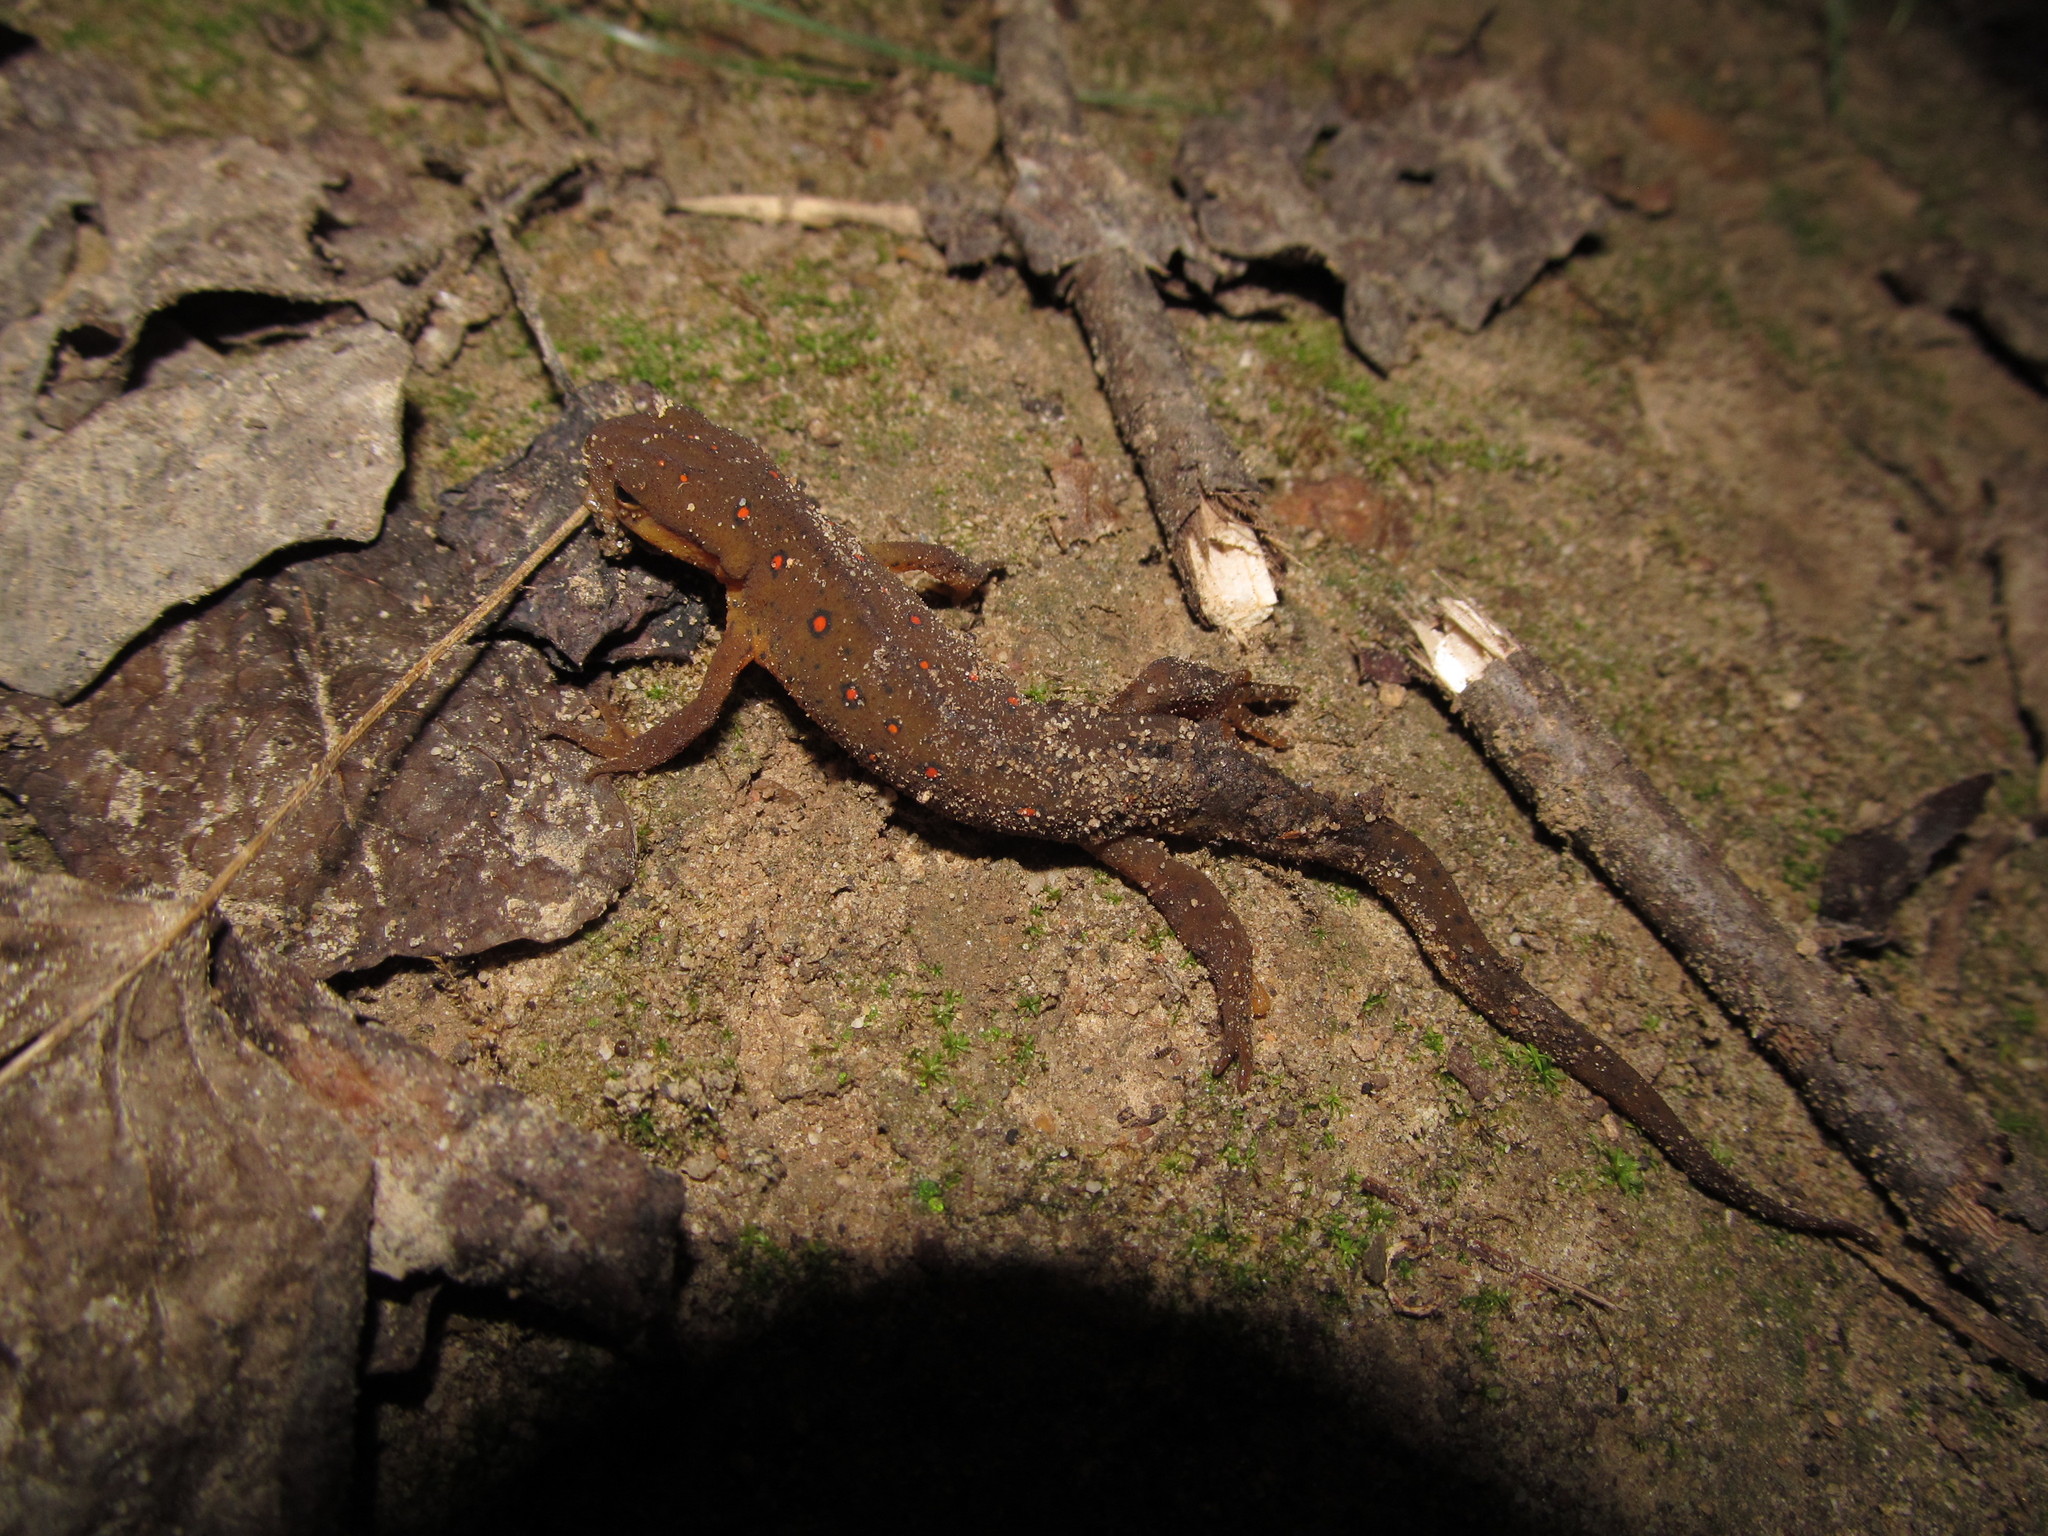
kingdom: Animalia
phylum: Chordata
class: Amphibia
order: Caudata
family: Salamandridae
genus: Notophthalmus
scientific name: Notophthalmus viridescens
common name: Eastern newt
